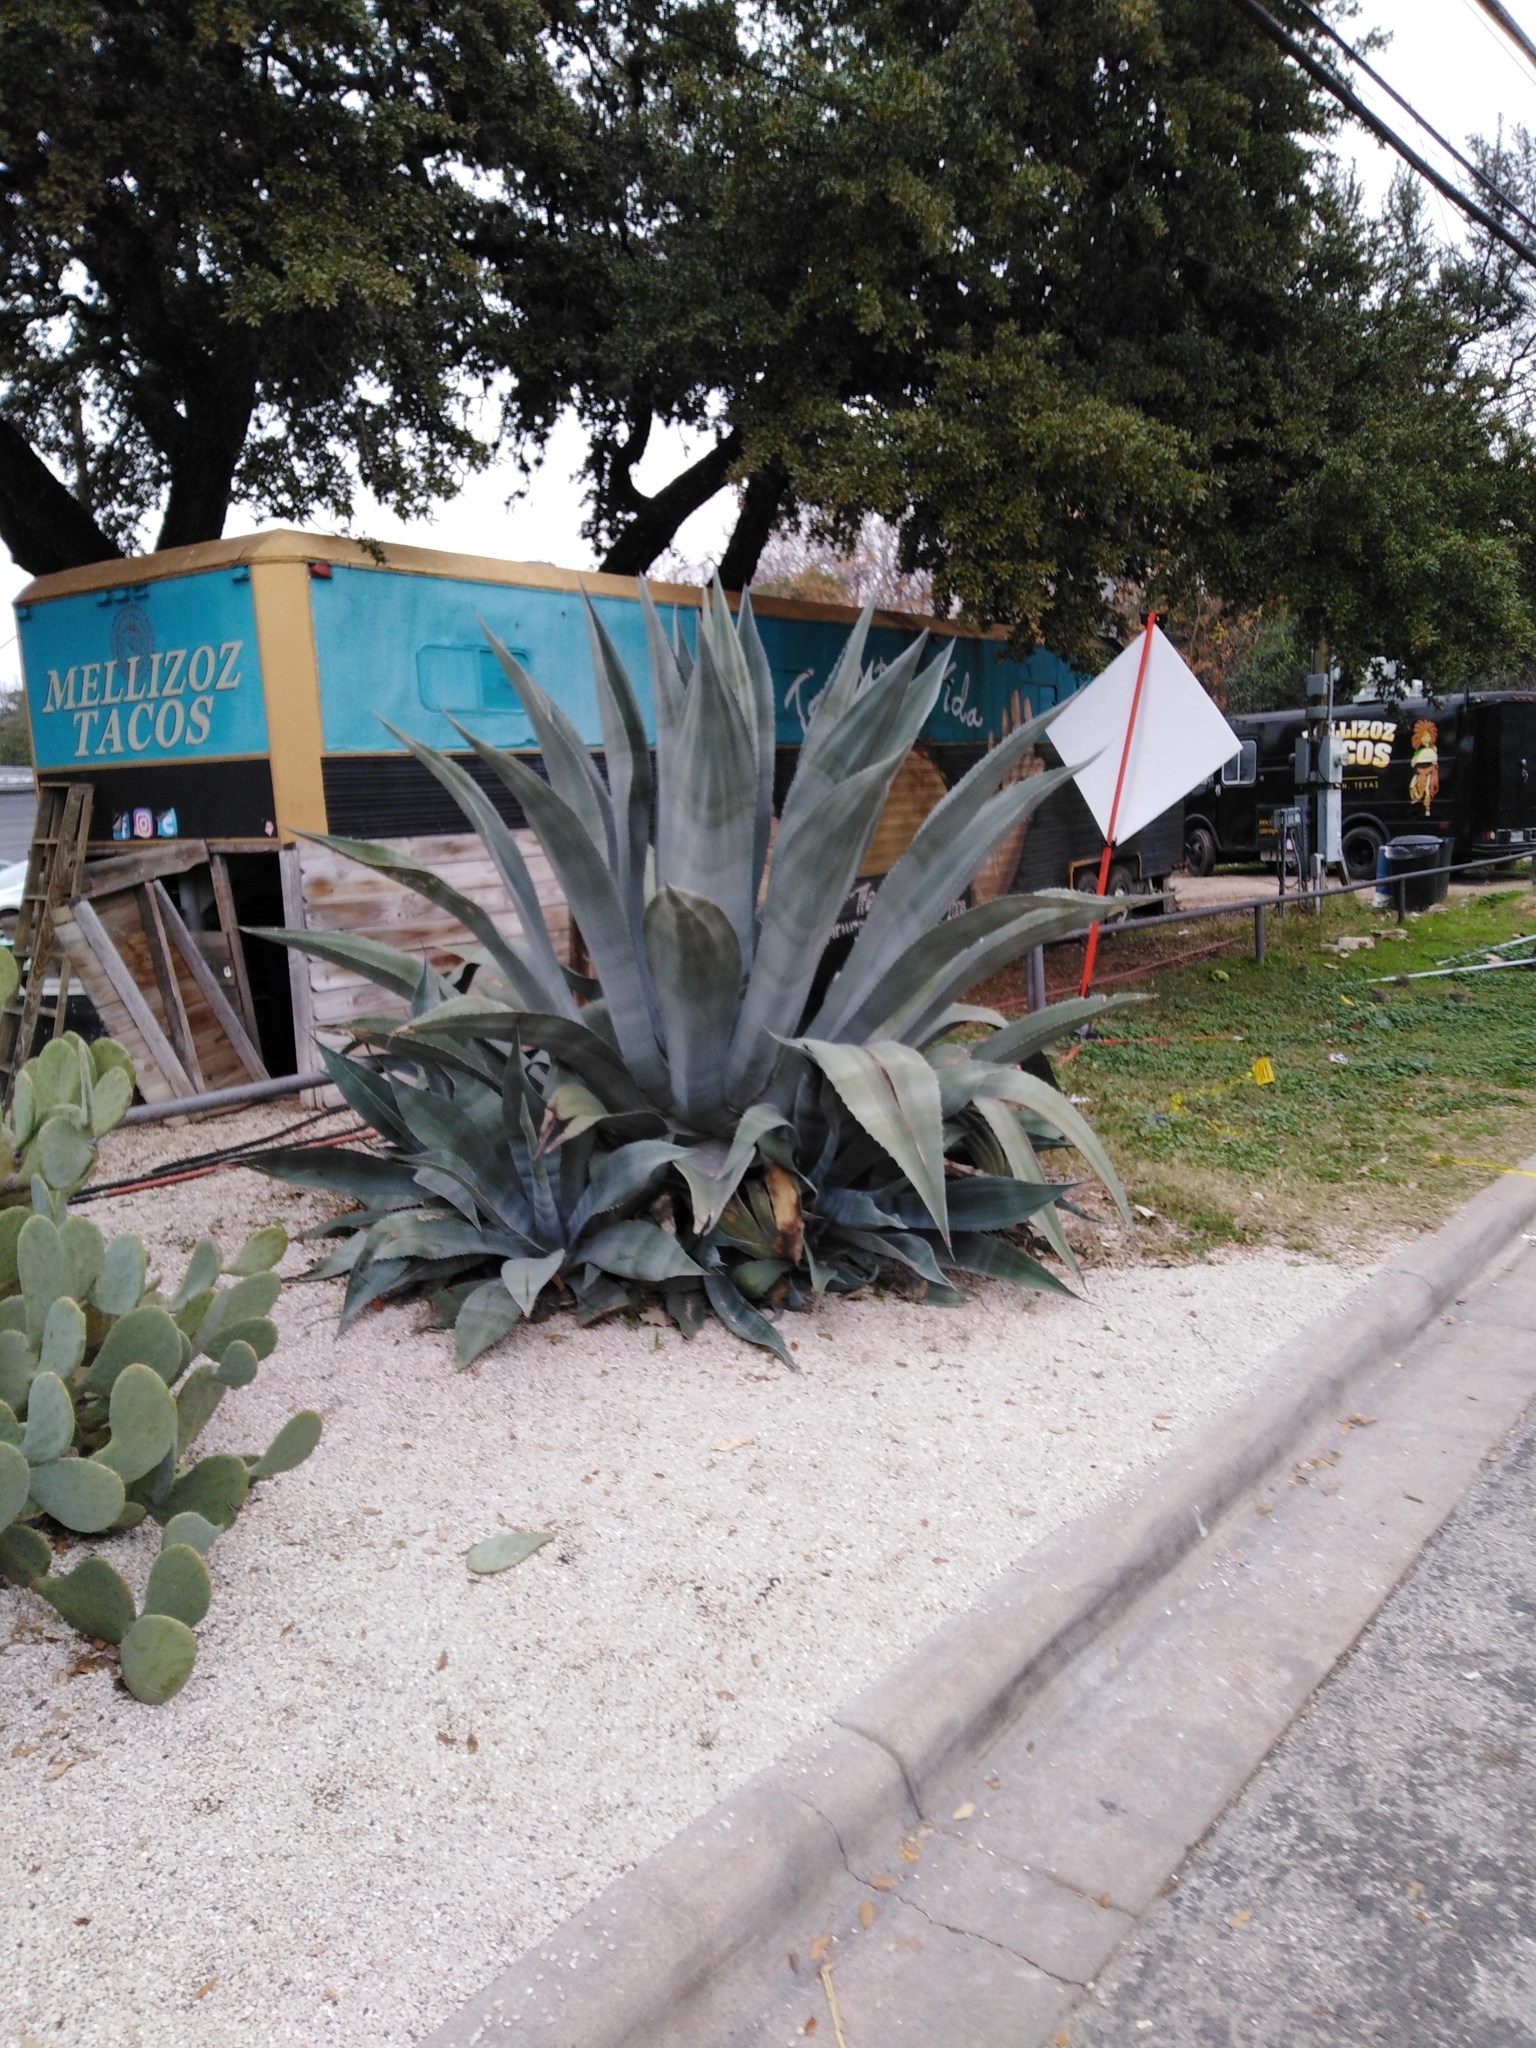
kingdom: Plantae
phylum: Tracheophyta
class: Liliopsida
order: Asparagales
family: Asparagaceae
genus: Agave
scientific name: Agave americana
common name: Centuryplant
